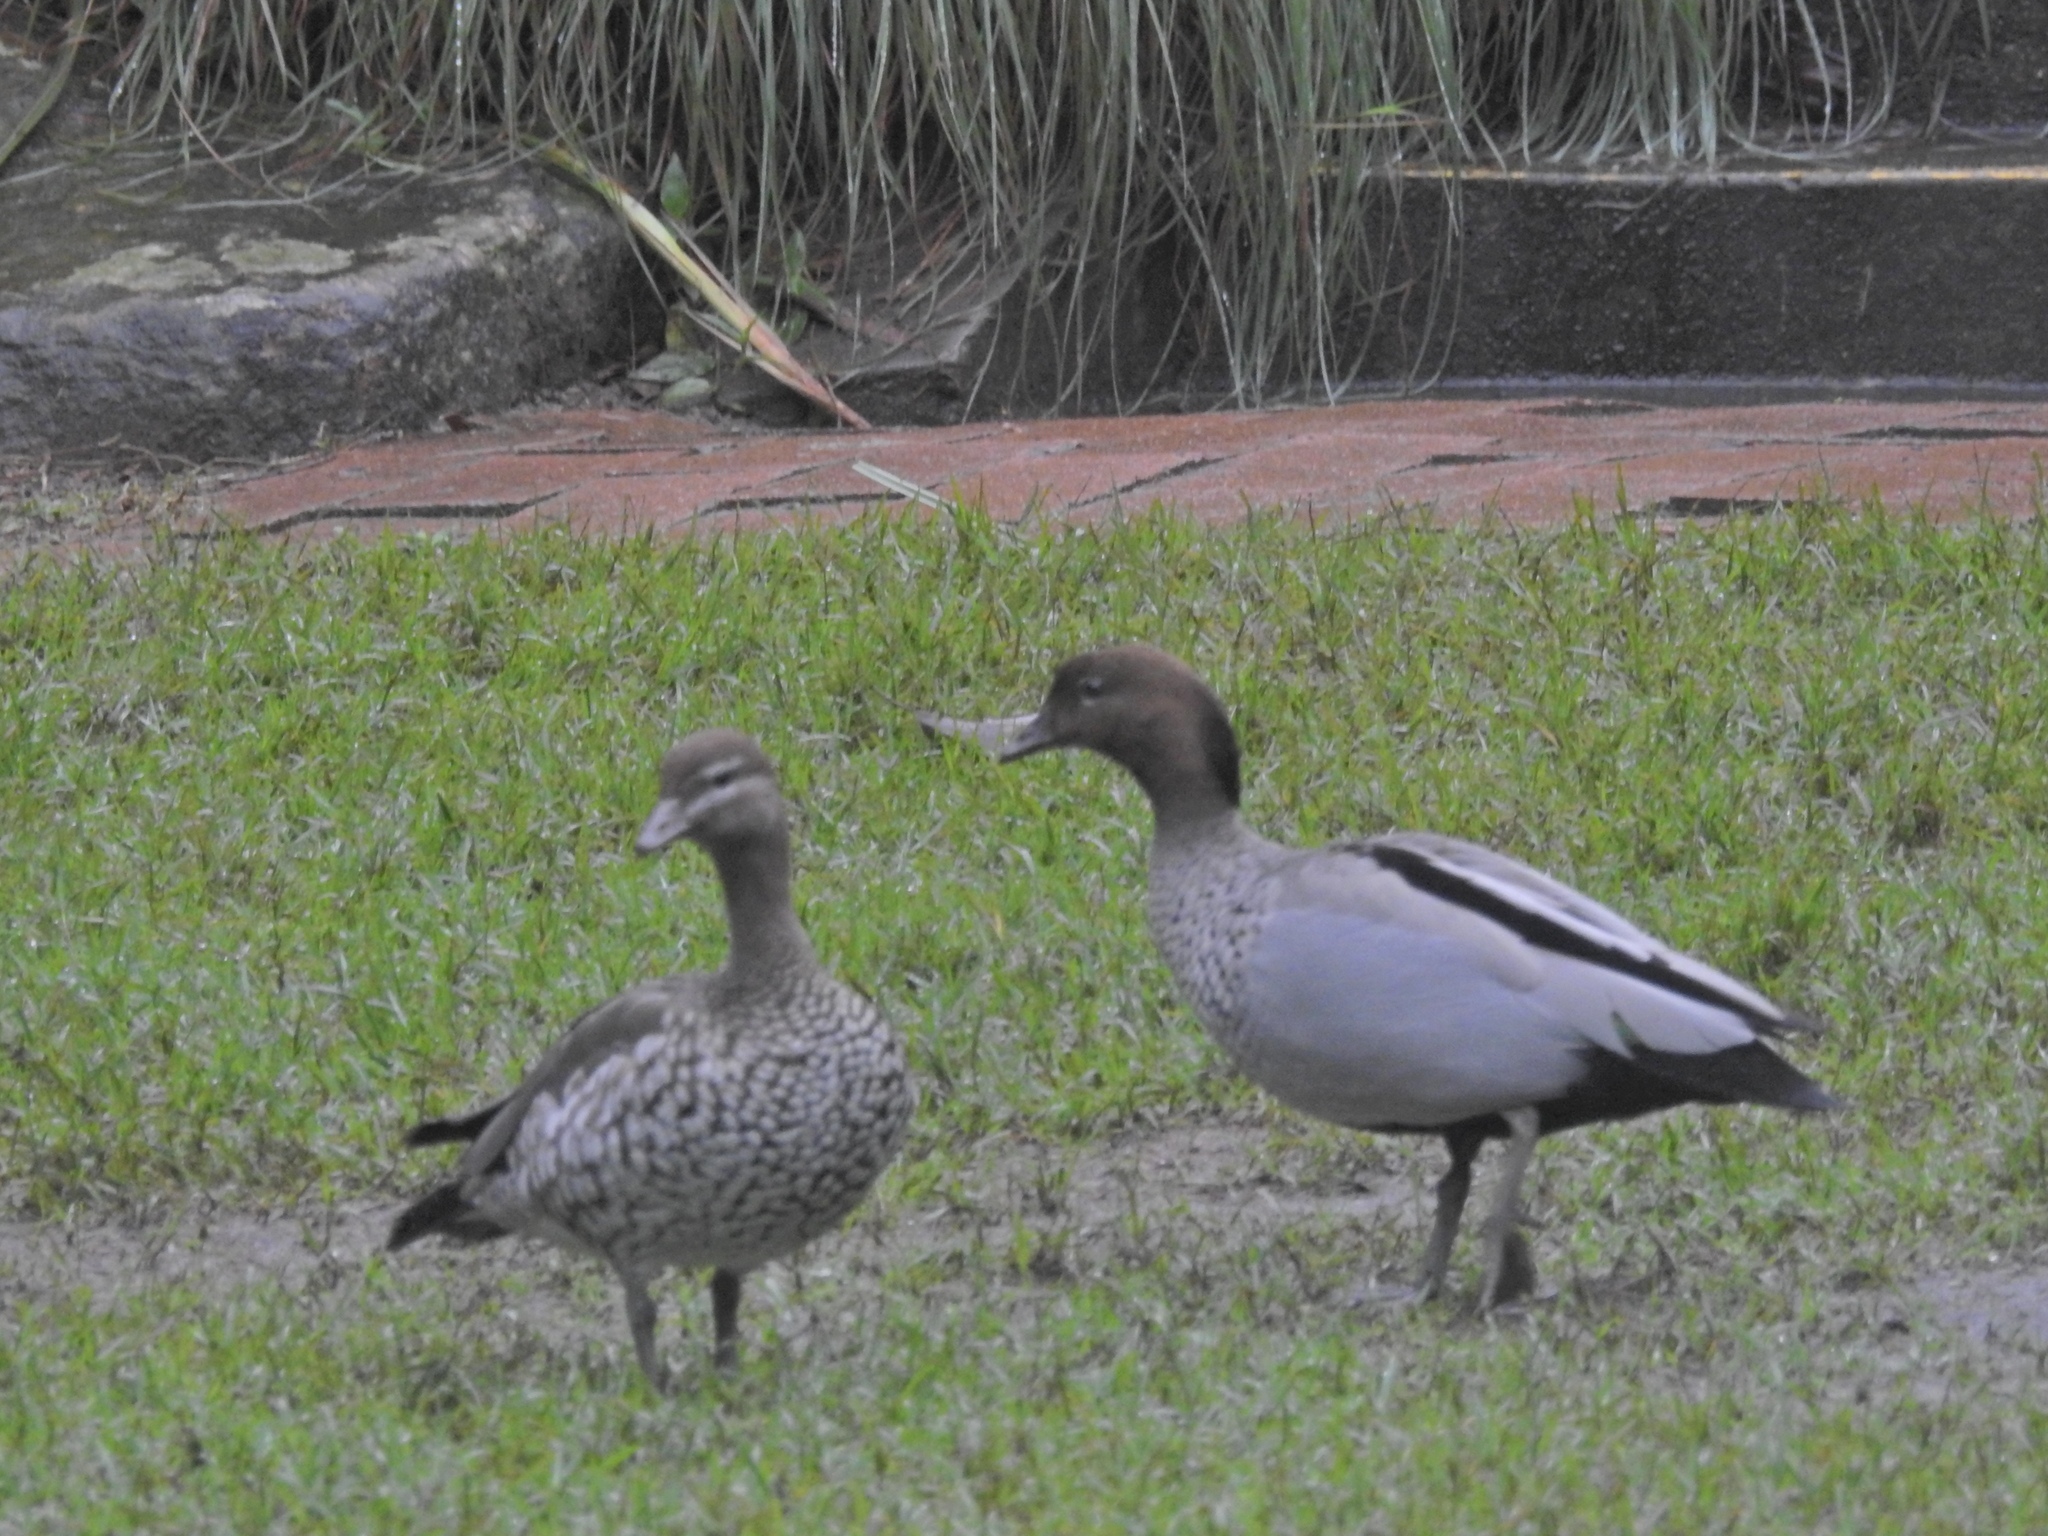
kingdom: Animalia
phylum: Chordata
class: Aves
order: Anseriformes
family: Anatidae
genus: Chenonetta
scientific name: Chenonetta jubata
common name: Maned duck
